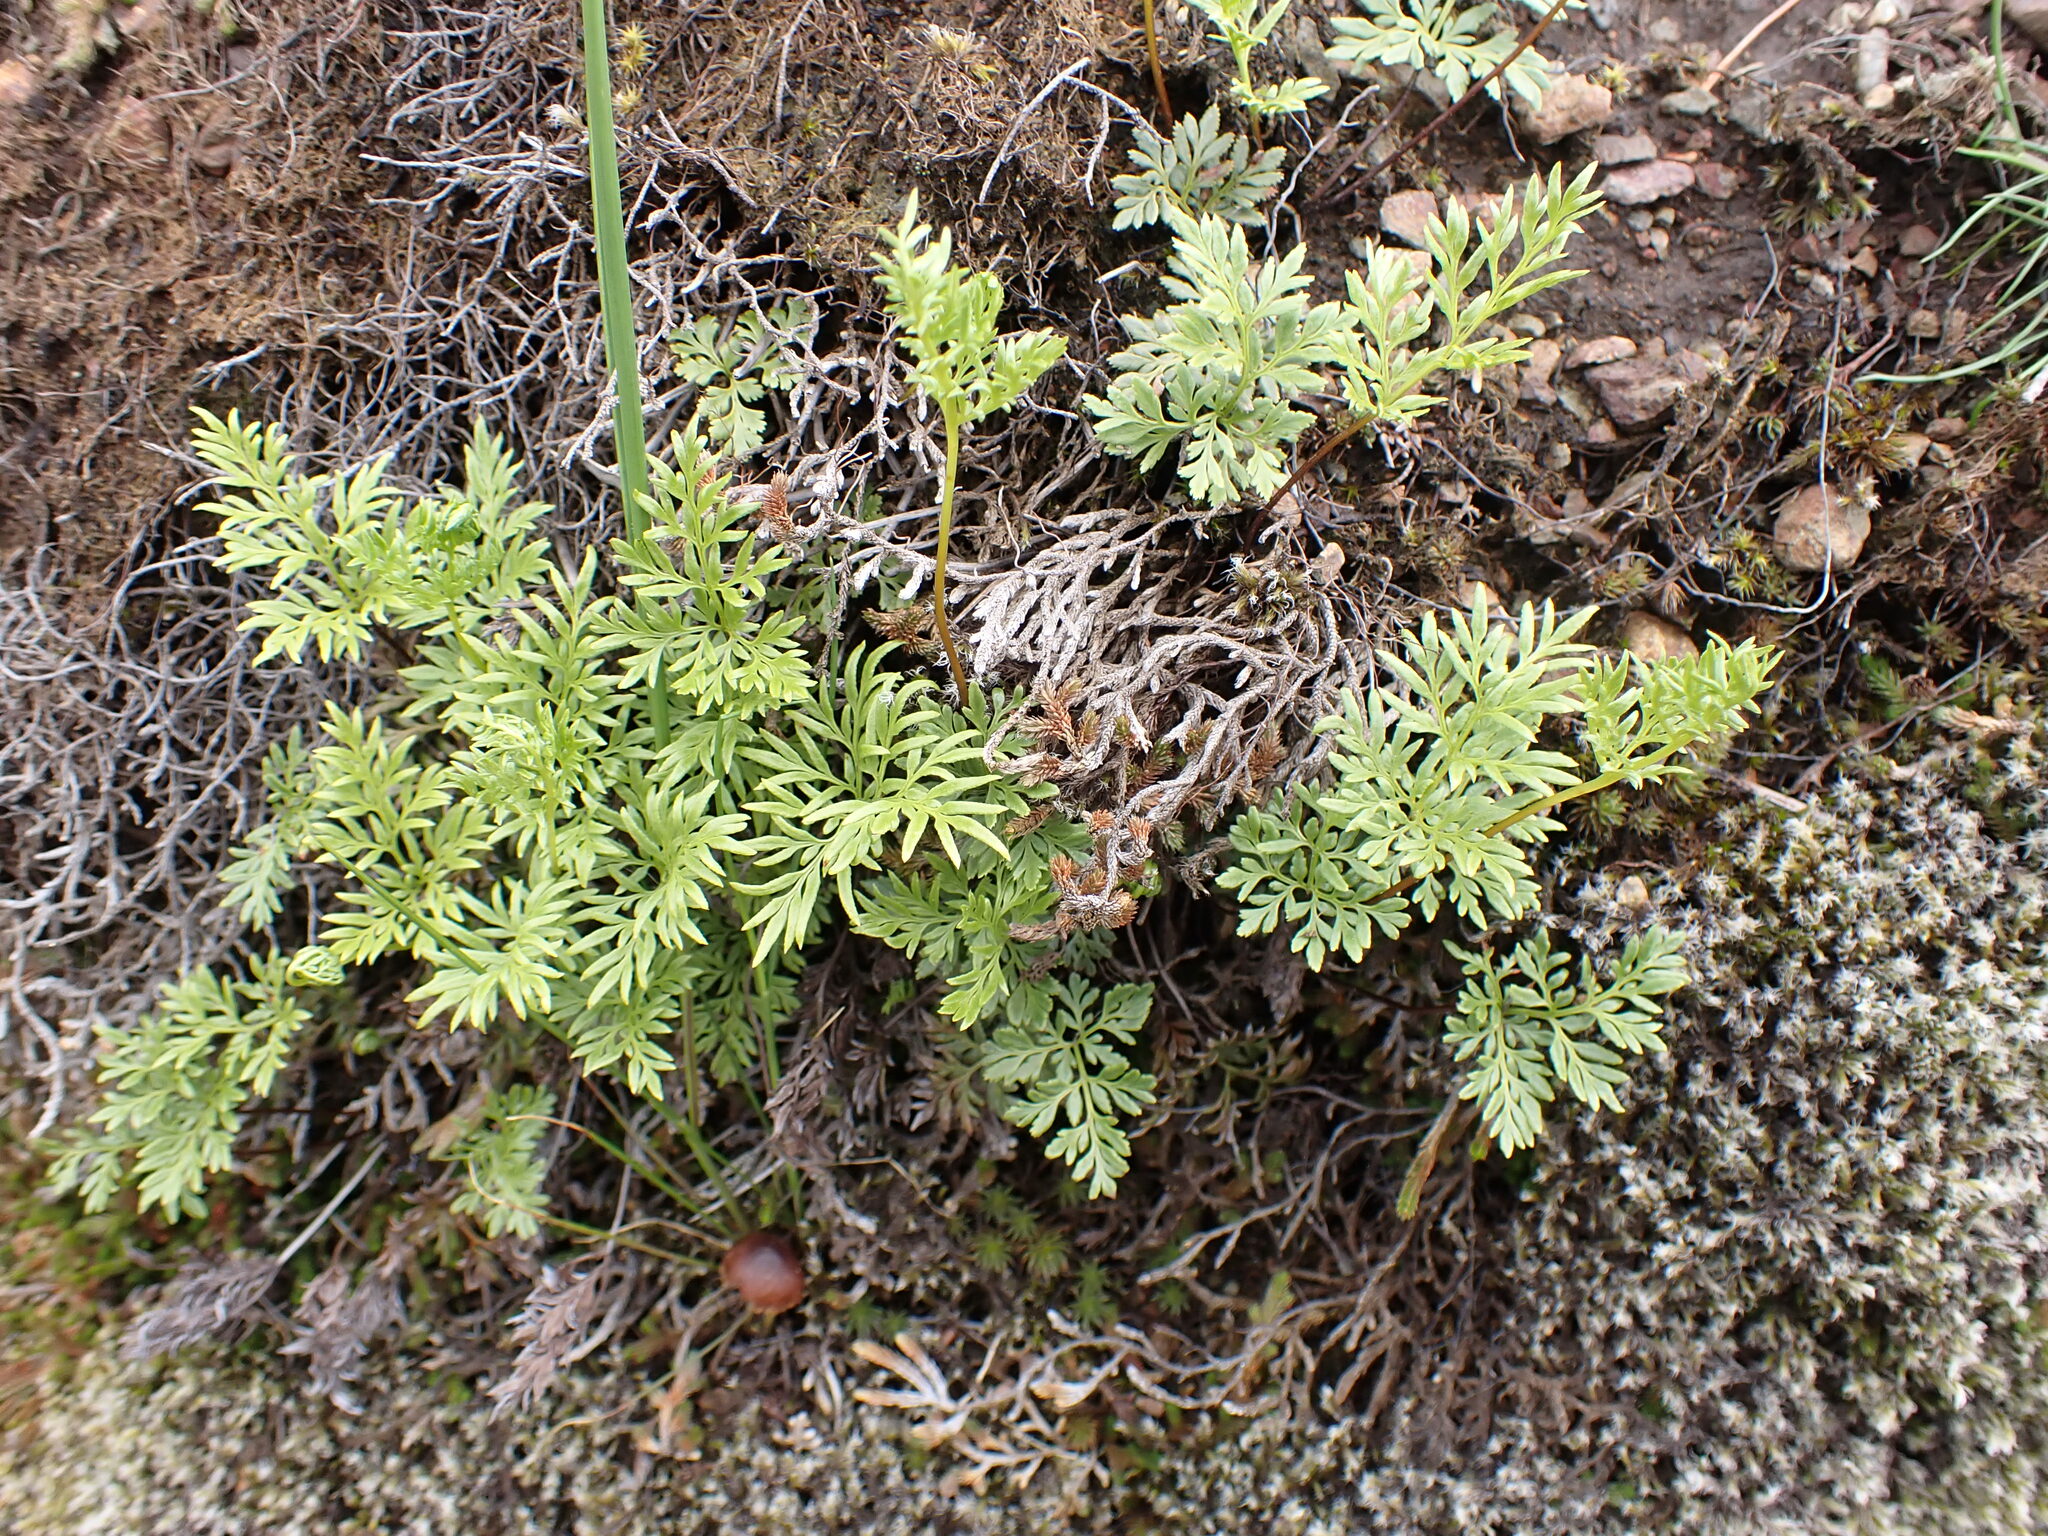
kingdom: Plantae
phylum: Tracheophyta
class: Polypodiopsida
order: Polypodiales
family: Pteridaceae
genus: Aspidotis
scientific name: Aspidotis densa
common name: Indian's dream
